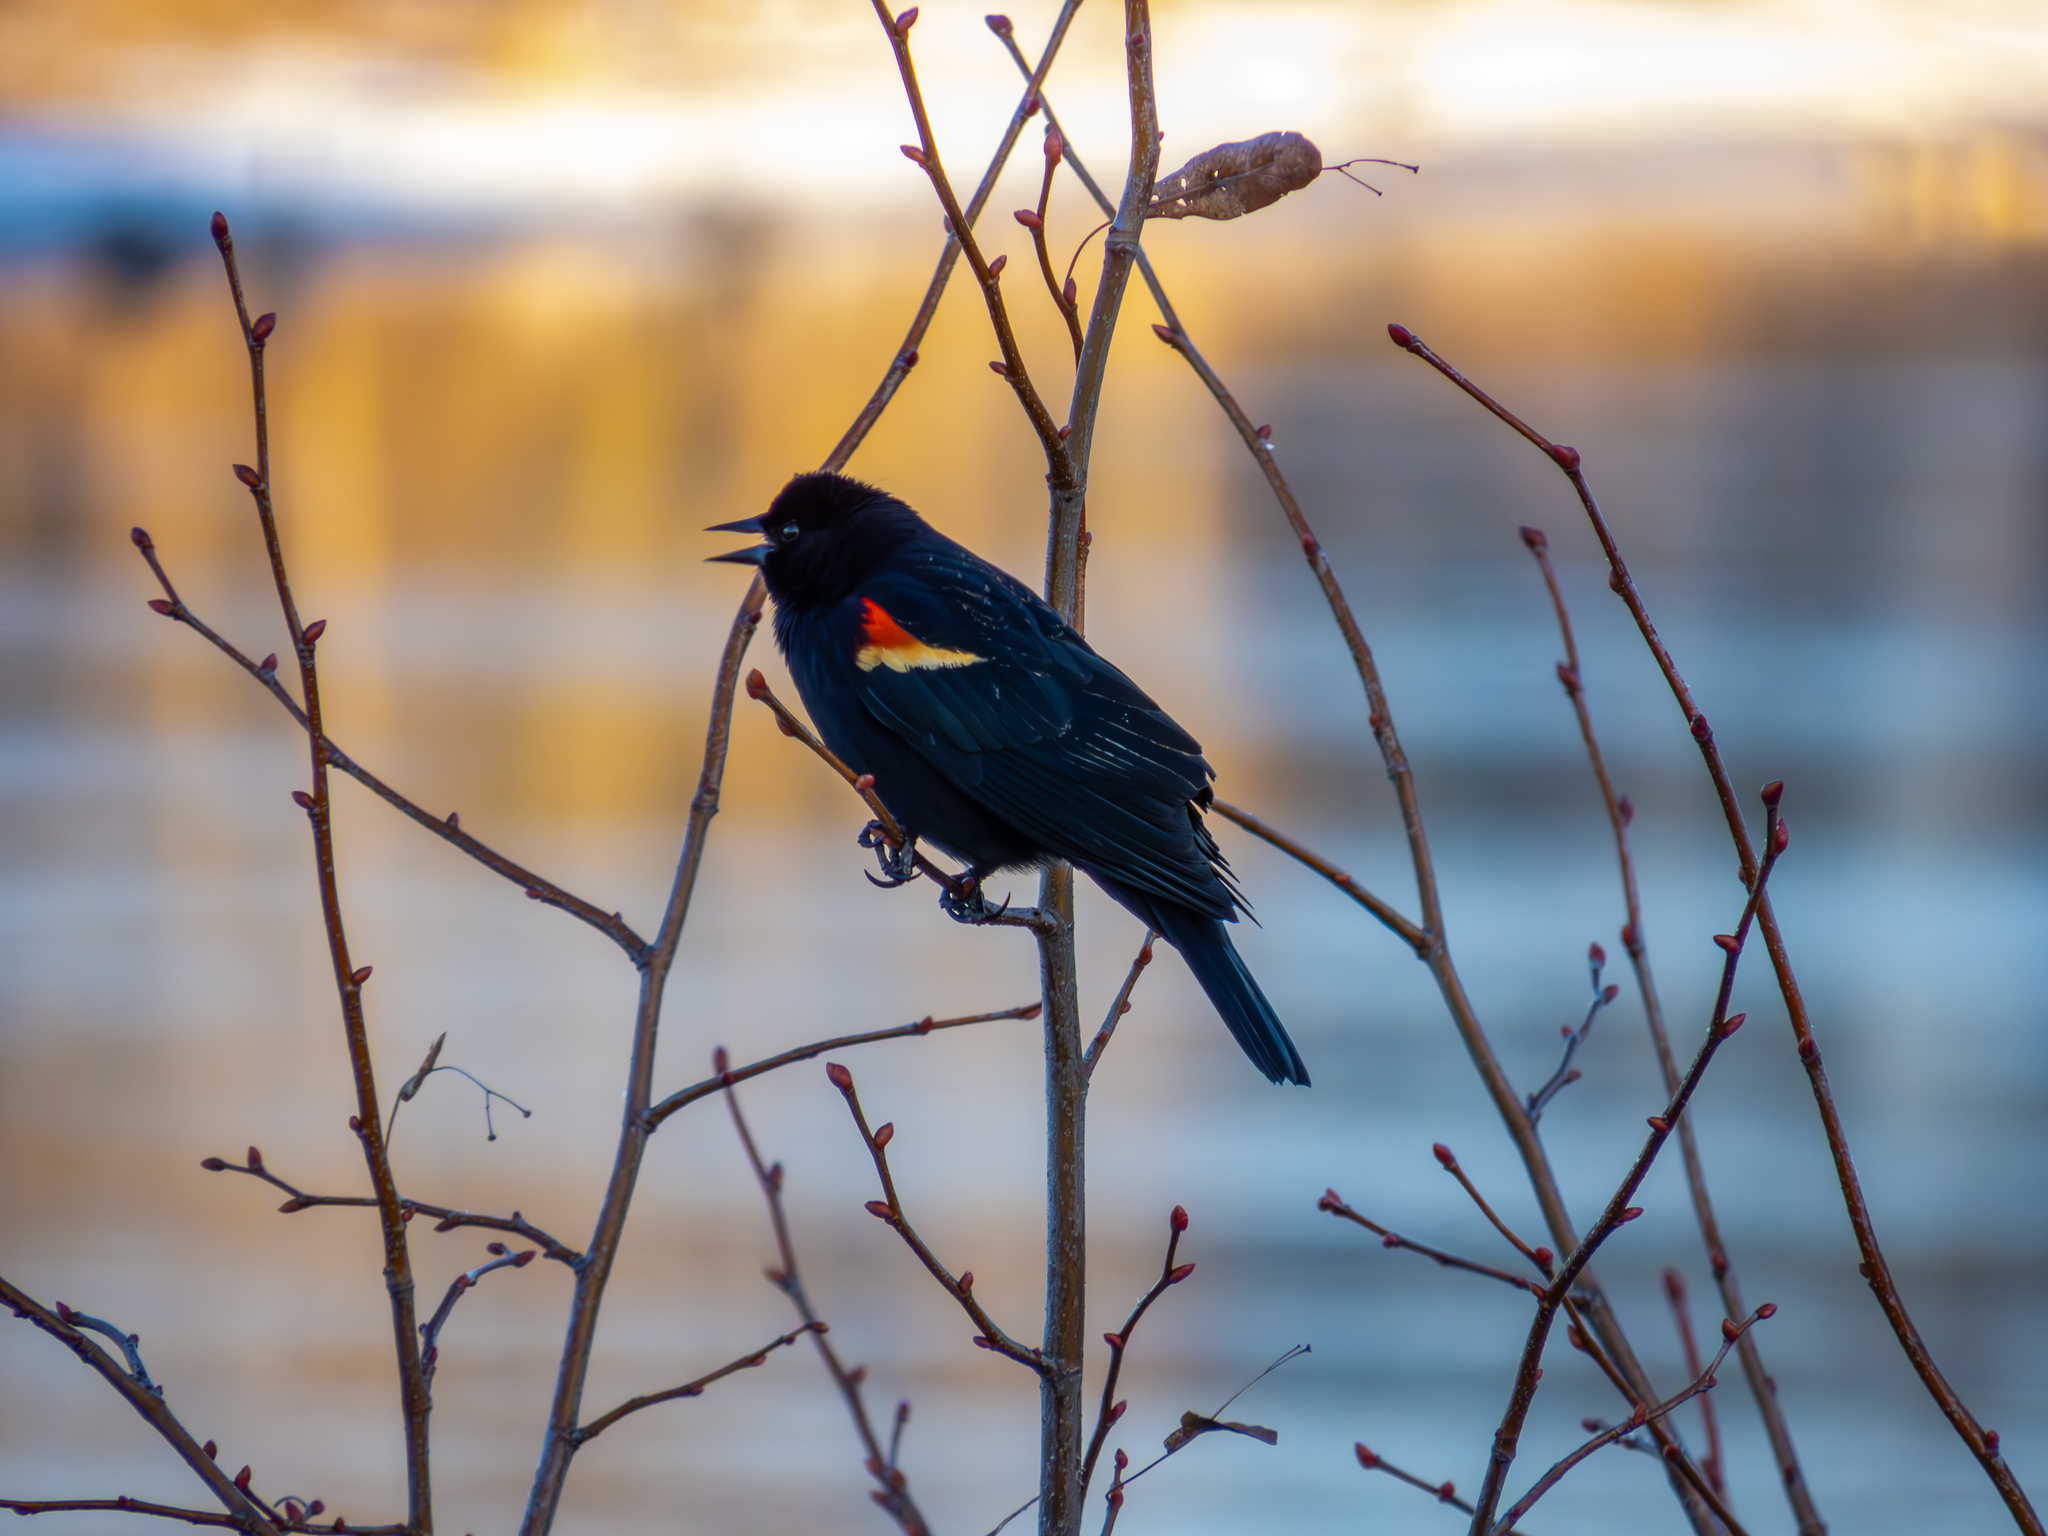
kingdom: Animalia
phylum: Chordata
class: Aves
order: Passeriformes
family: Icteridae
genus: Agelaius
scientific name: Agelaius phoeniceus
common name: Red-winged blackbird
